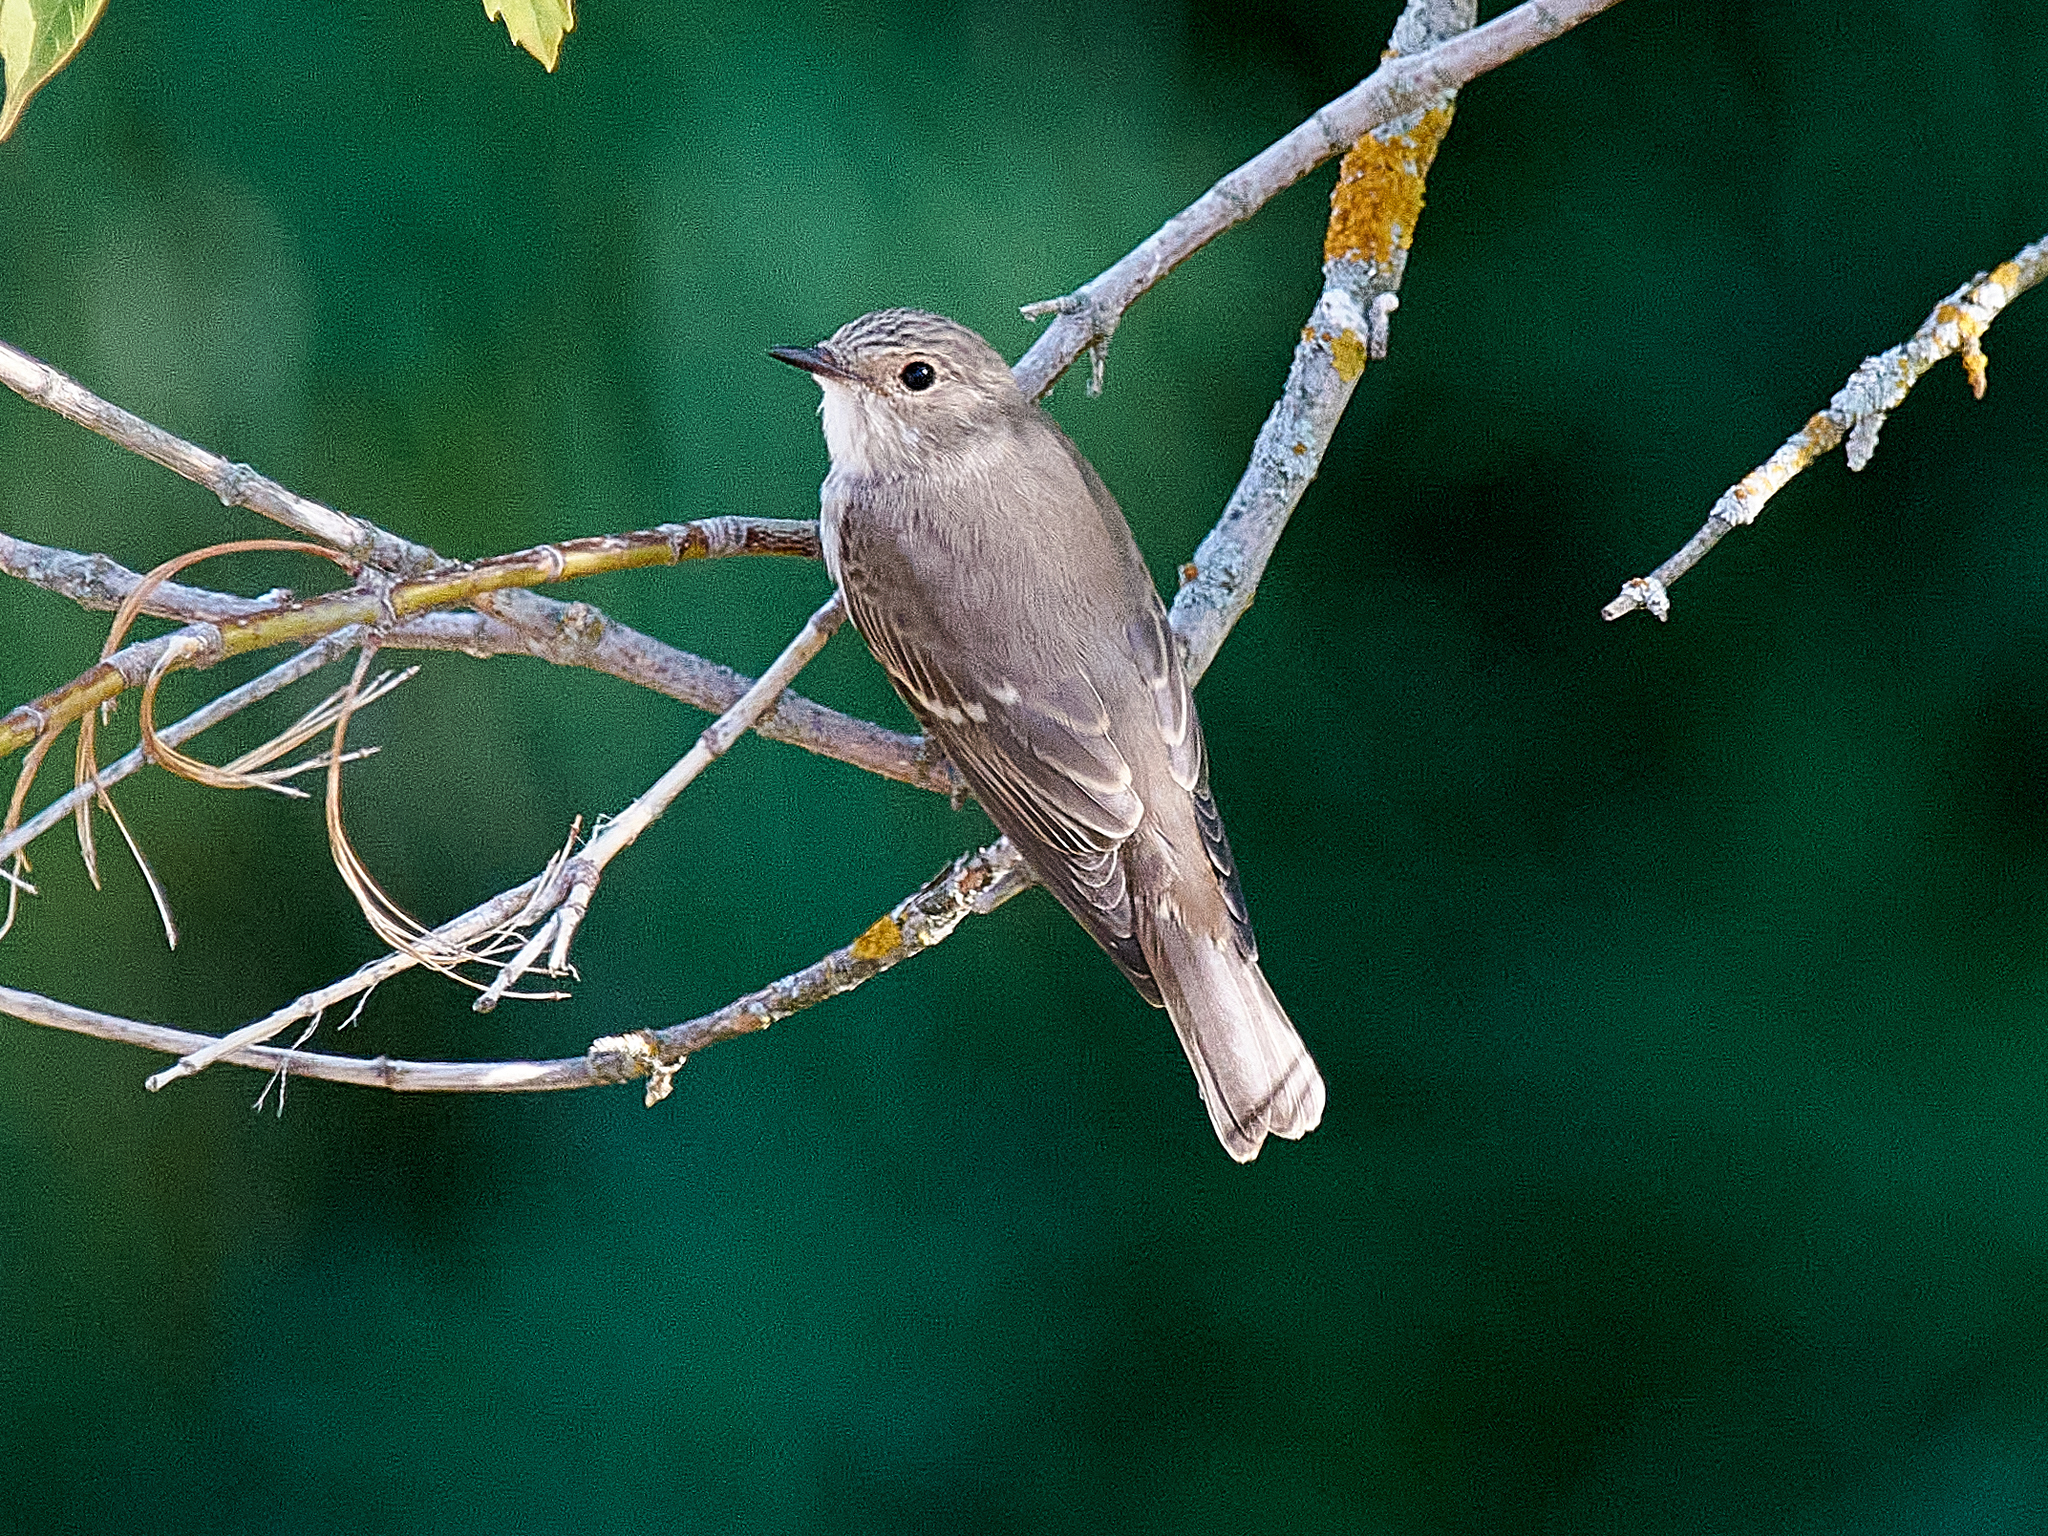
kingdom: Animalia
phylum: Chordata
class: Aves
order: Passeriformes
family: Muscicapidae
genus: Muscicapa
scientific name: Muscicapa striata
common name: Spotted flycatcher
